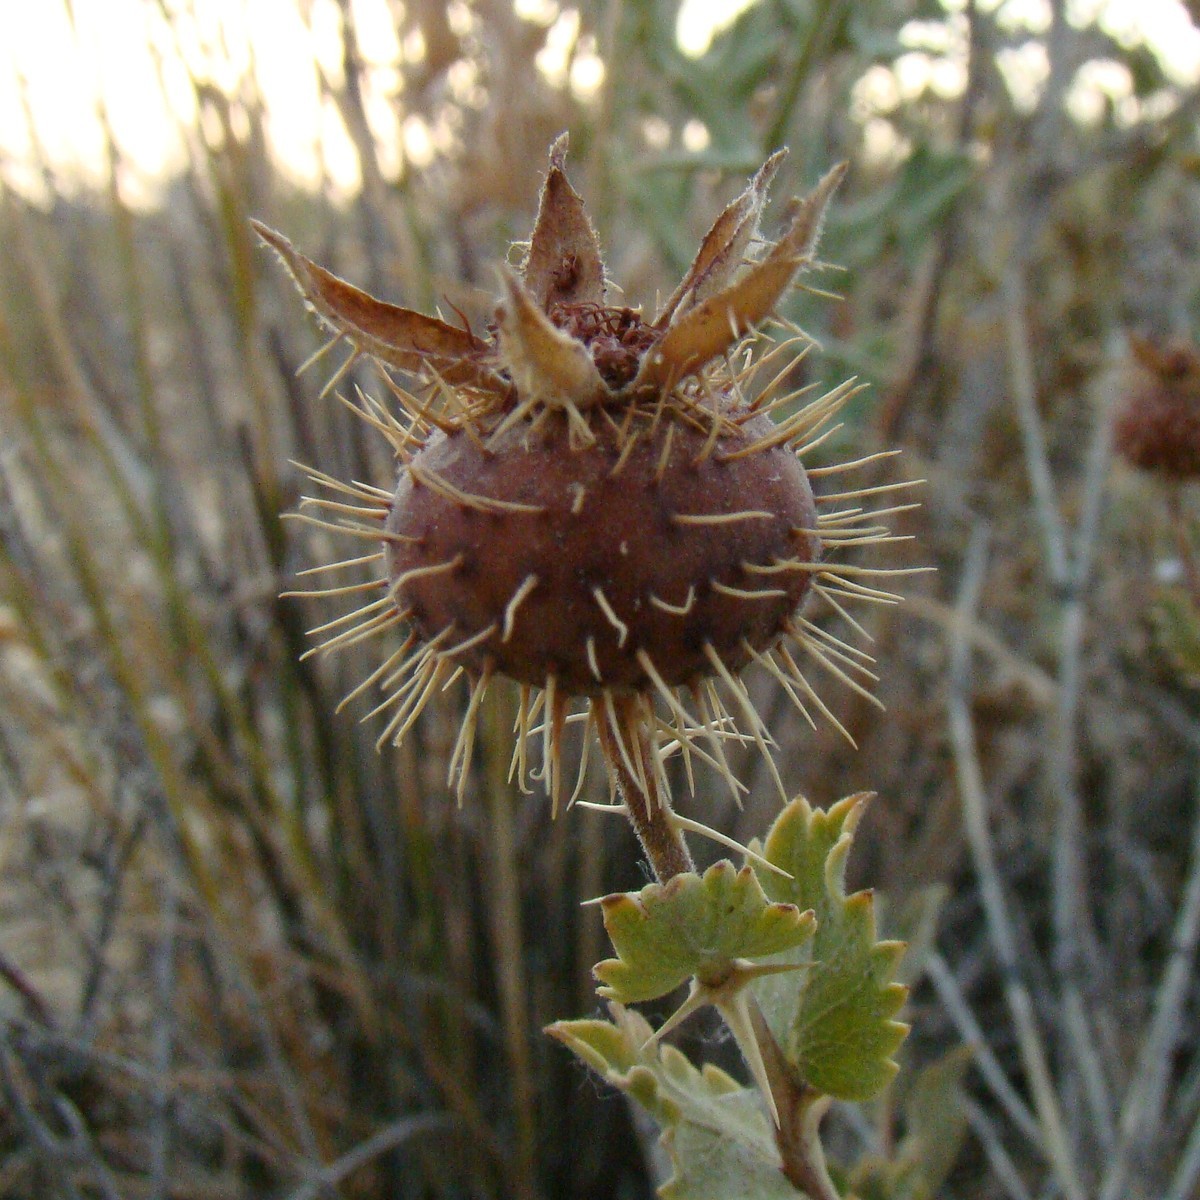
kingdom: Plantae
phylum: Tracheophyta
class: Magnoliopsida
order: Rosales
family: Rosaceae
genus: Rosa
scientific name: Rosa persica
